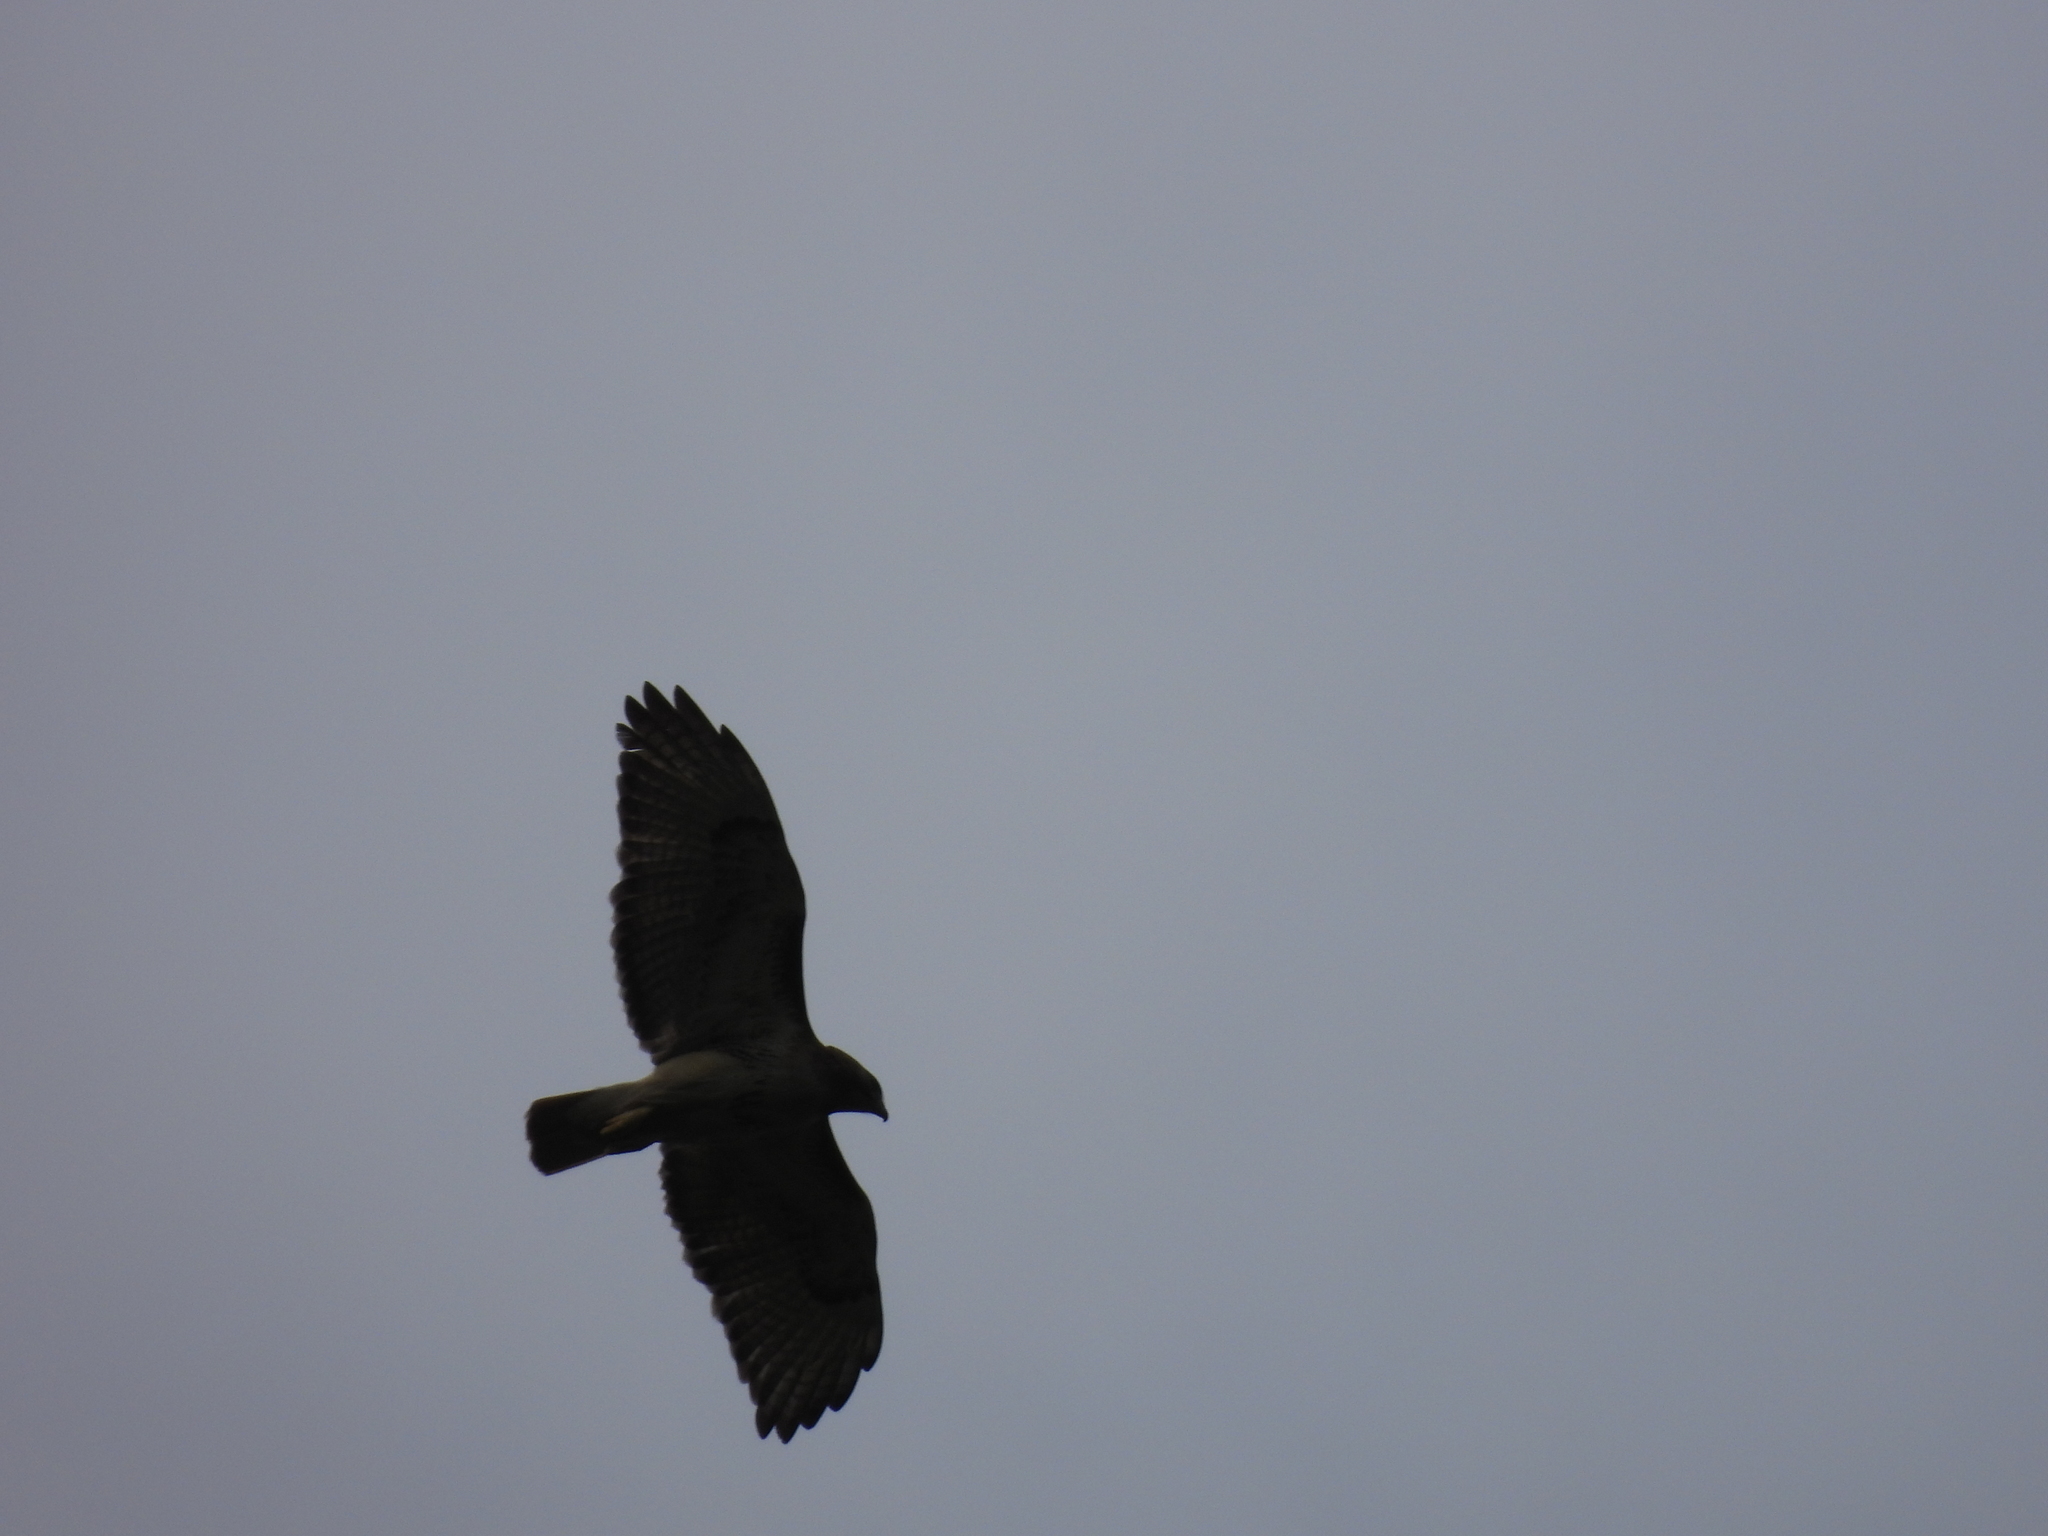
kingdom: Animalia
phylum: Chordata
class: Aves
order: Accipitriformes
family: Accipitridae
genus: Buteo
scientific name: Buteo jamaicensis
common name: Red-tailed hawk
